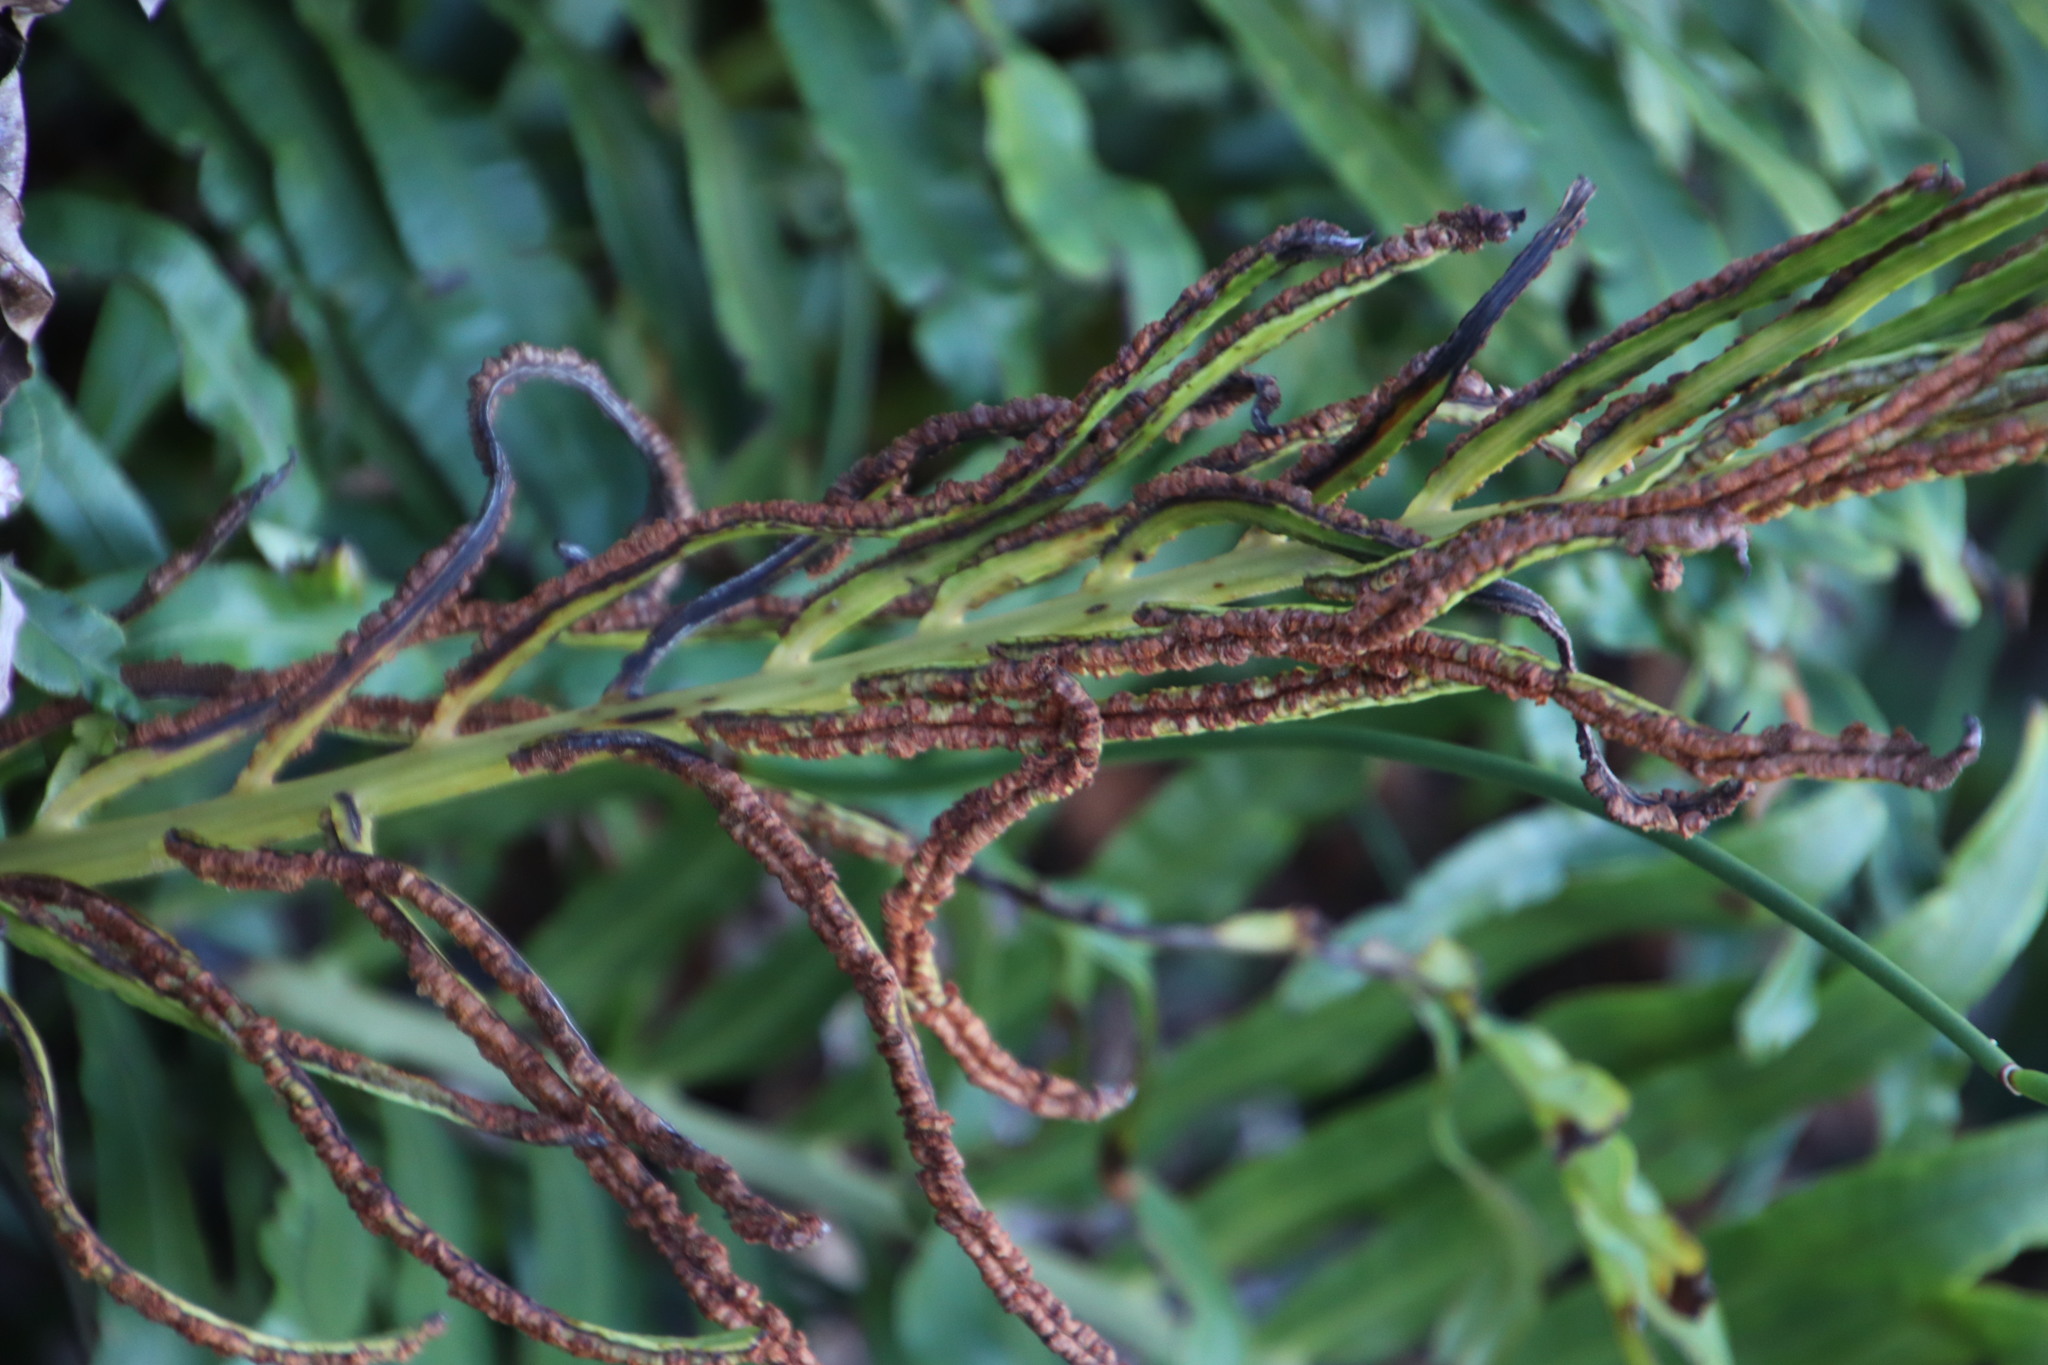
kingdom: Plantae
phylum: Tracheophyta
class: Polypodiopsida
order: Polypodiales
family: Blechnaceae
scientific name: Blechnaceae
